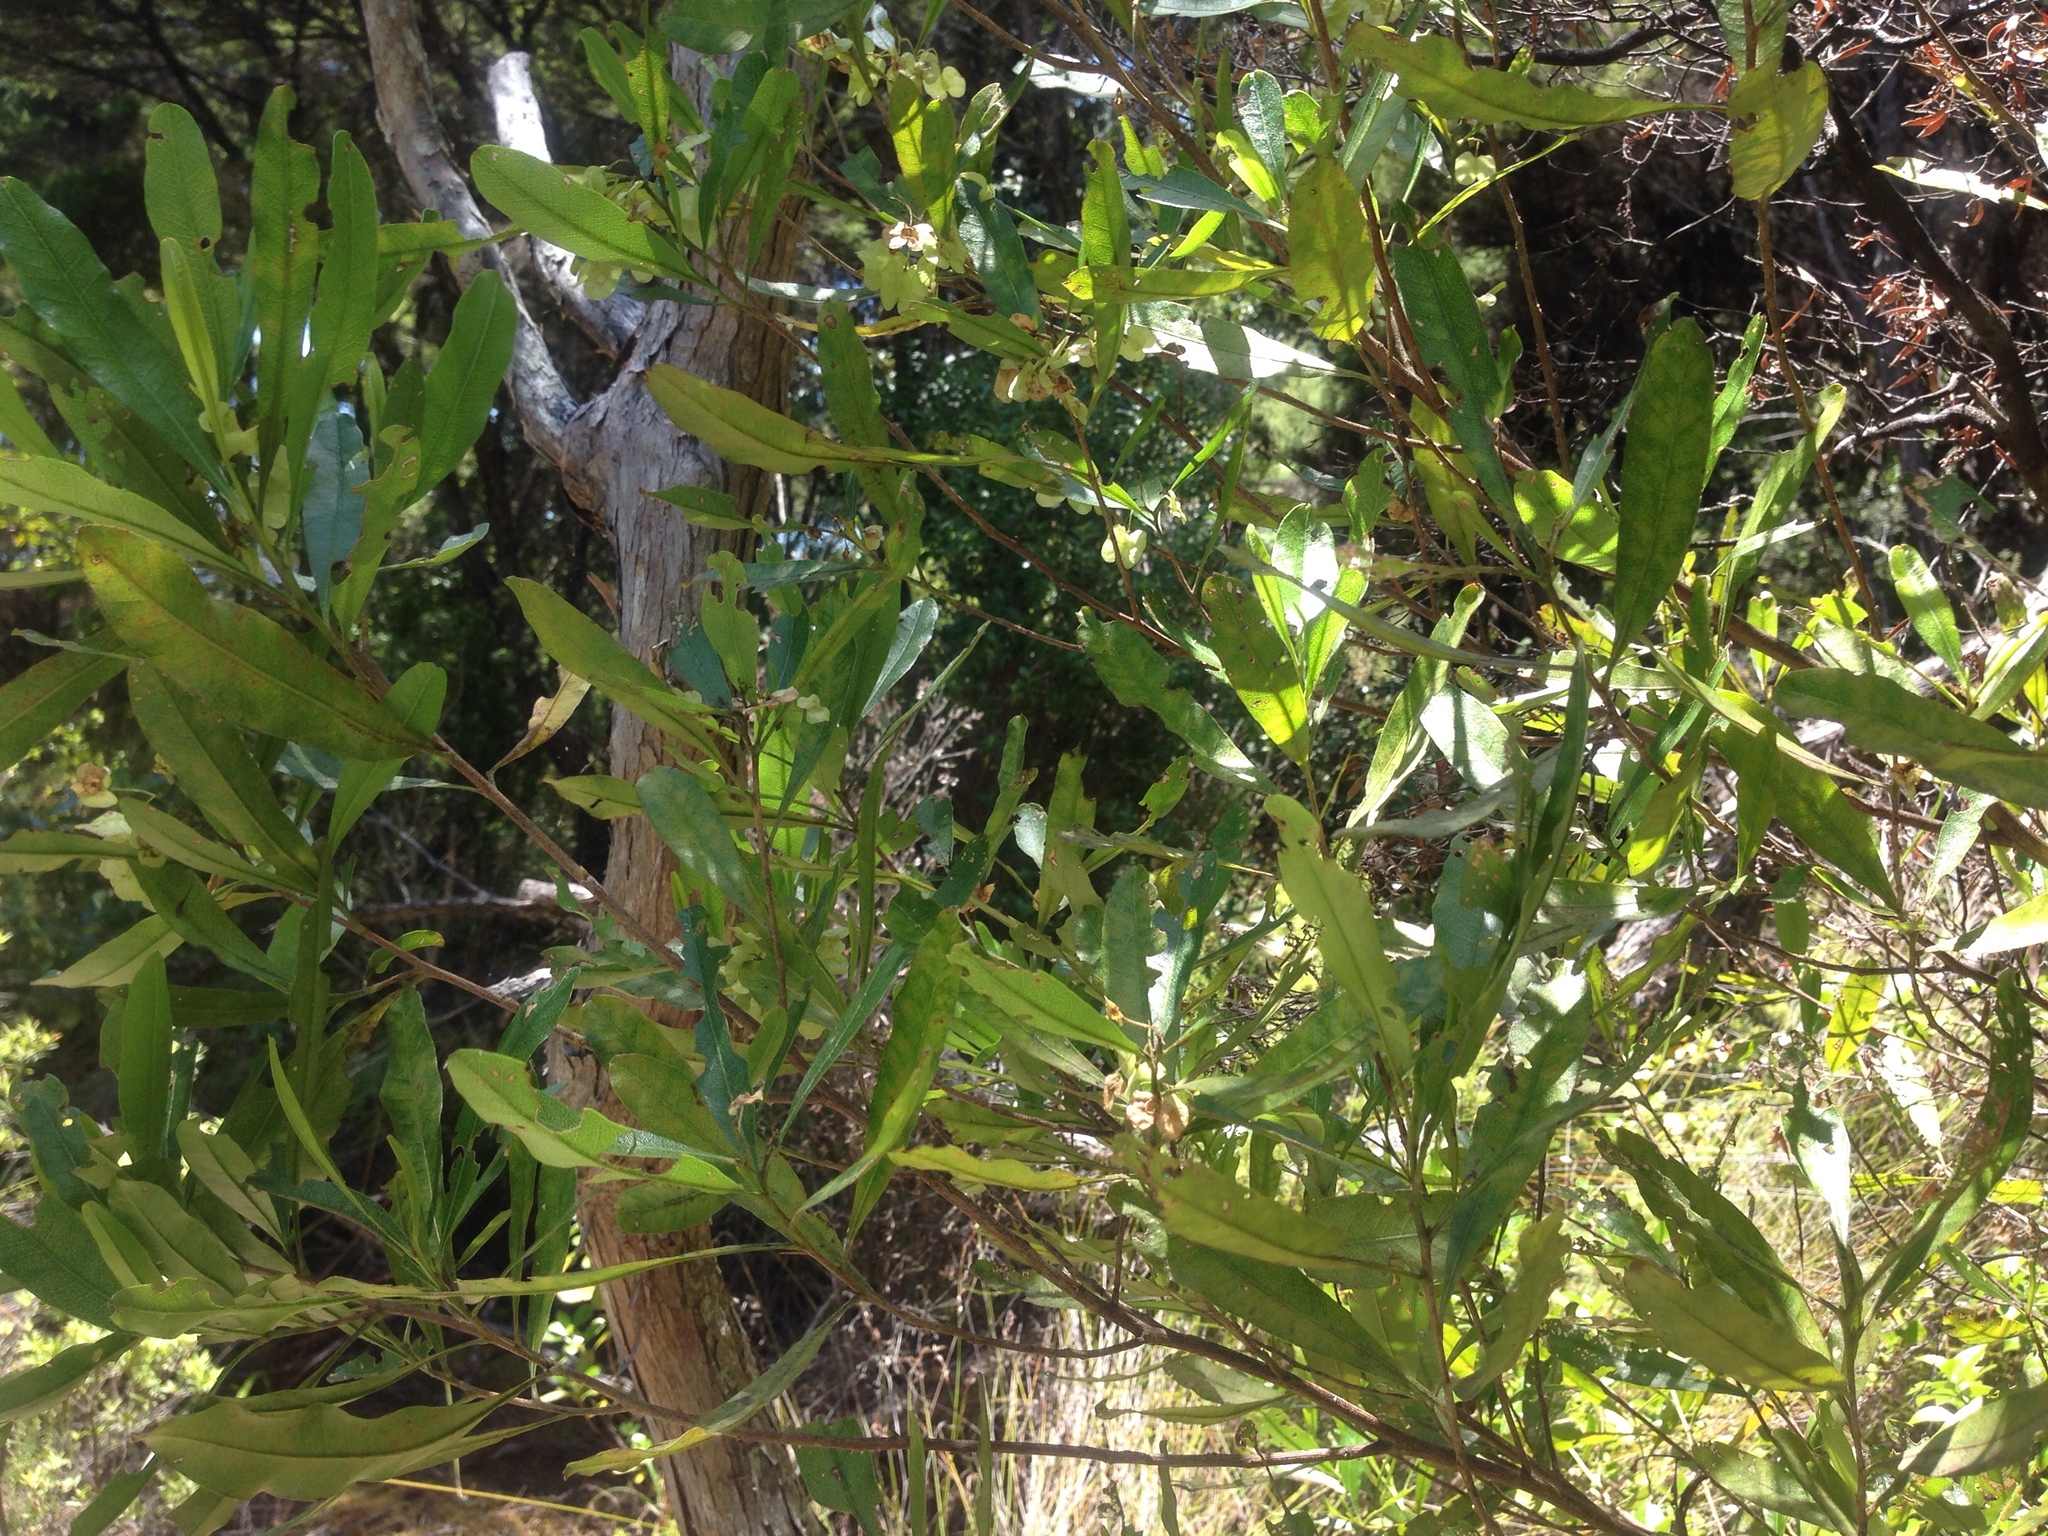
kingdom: Plantae
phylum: Tracheophyta
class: Magnoliopsida
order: Sapindales
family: Sapindaceae
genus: Dodonaea
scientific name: Dodonaea viscosa
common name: Hopbush
